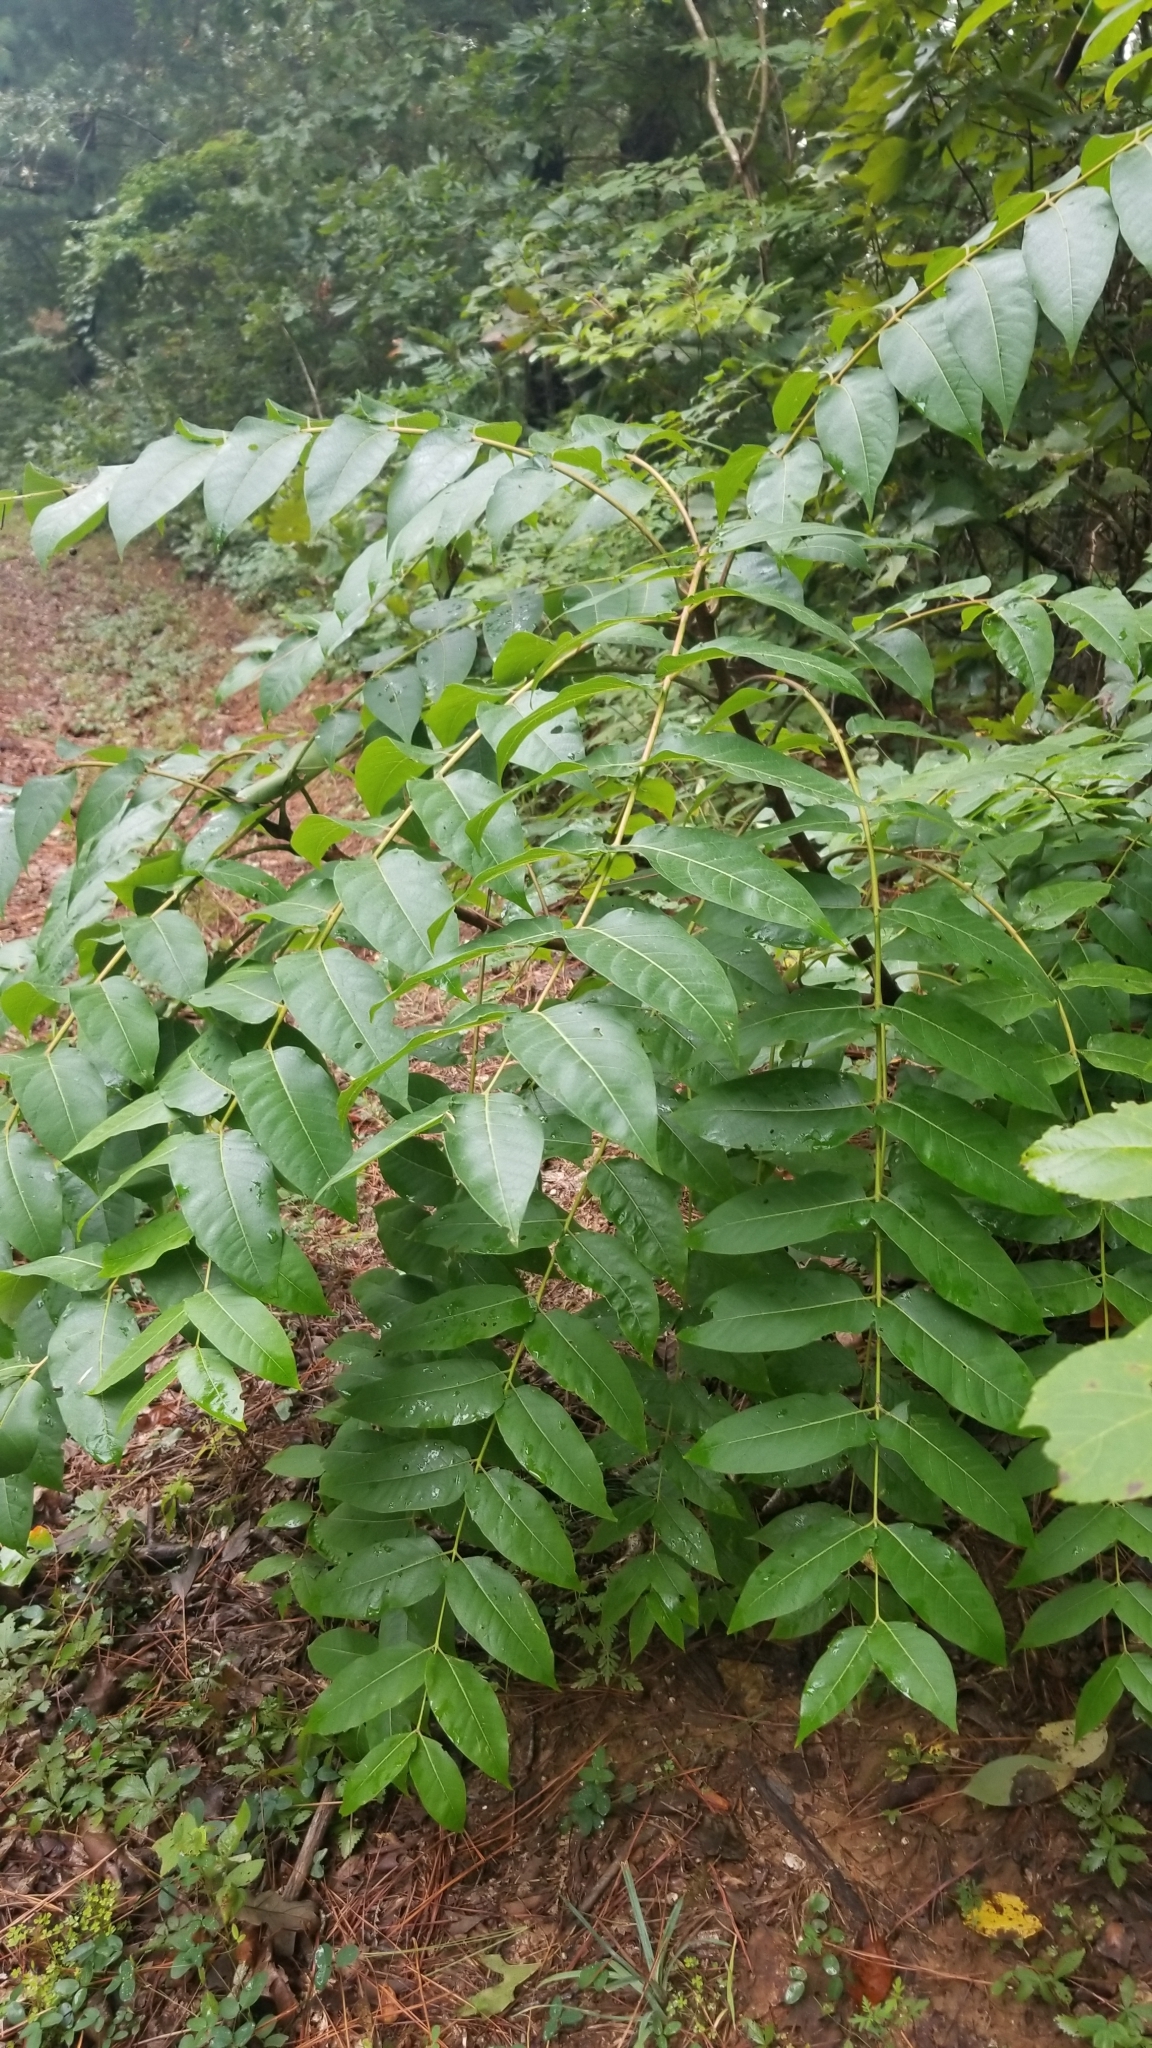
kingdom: Plantae
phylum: Tracheophyta
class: Magnoliopsida
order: Sapindales
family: Simaroubaceae
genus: Ailanthus
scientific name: Ailanthus altissima
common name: Tree-of-heaven
